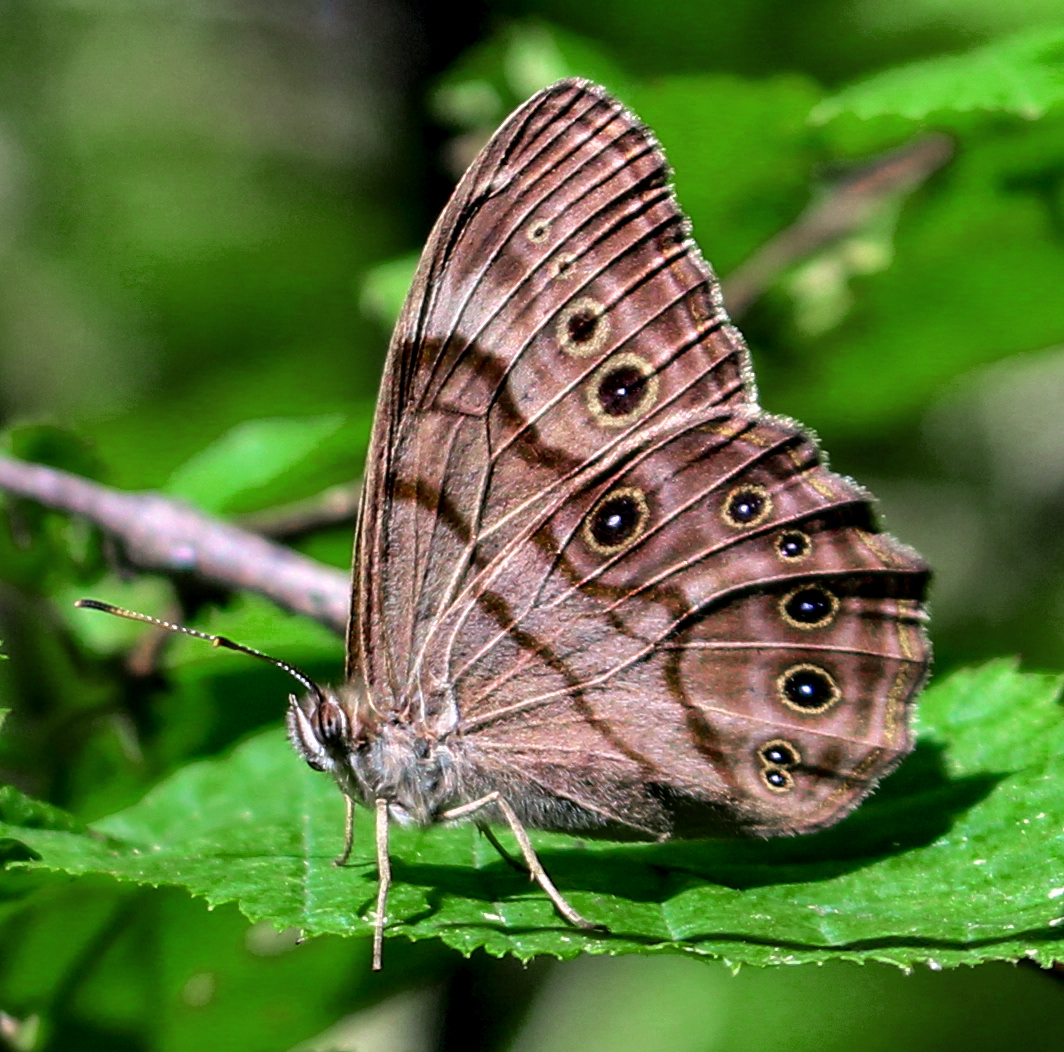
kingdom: Animalia
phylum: Arthropoda
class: Insecta
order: Lepidoptera
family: Nymphalidae
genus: Lethe
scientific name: Lethe anthedon
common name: Northern pearly-eye
